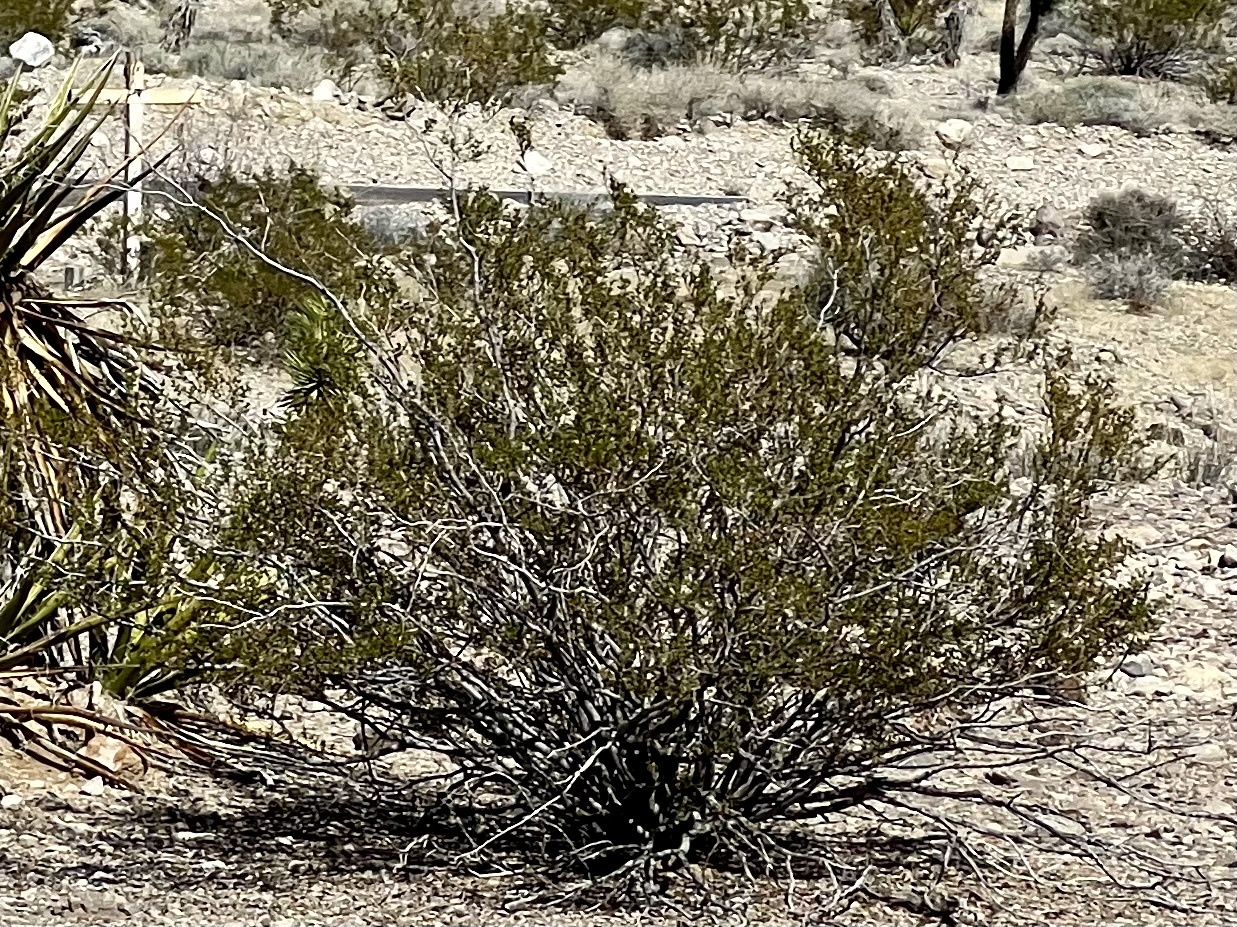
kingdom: Plantae
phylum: Tracheophyta
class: Magnoliopsida
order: Zygophyllales
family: Zygophyllaceae
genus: Larrea
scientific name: Larrea tridentata
